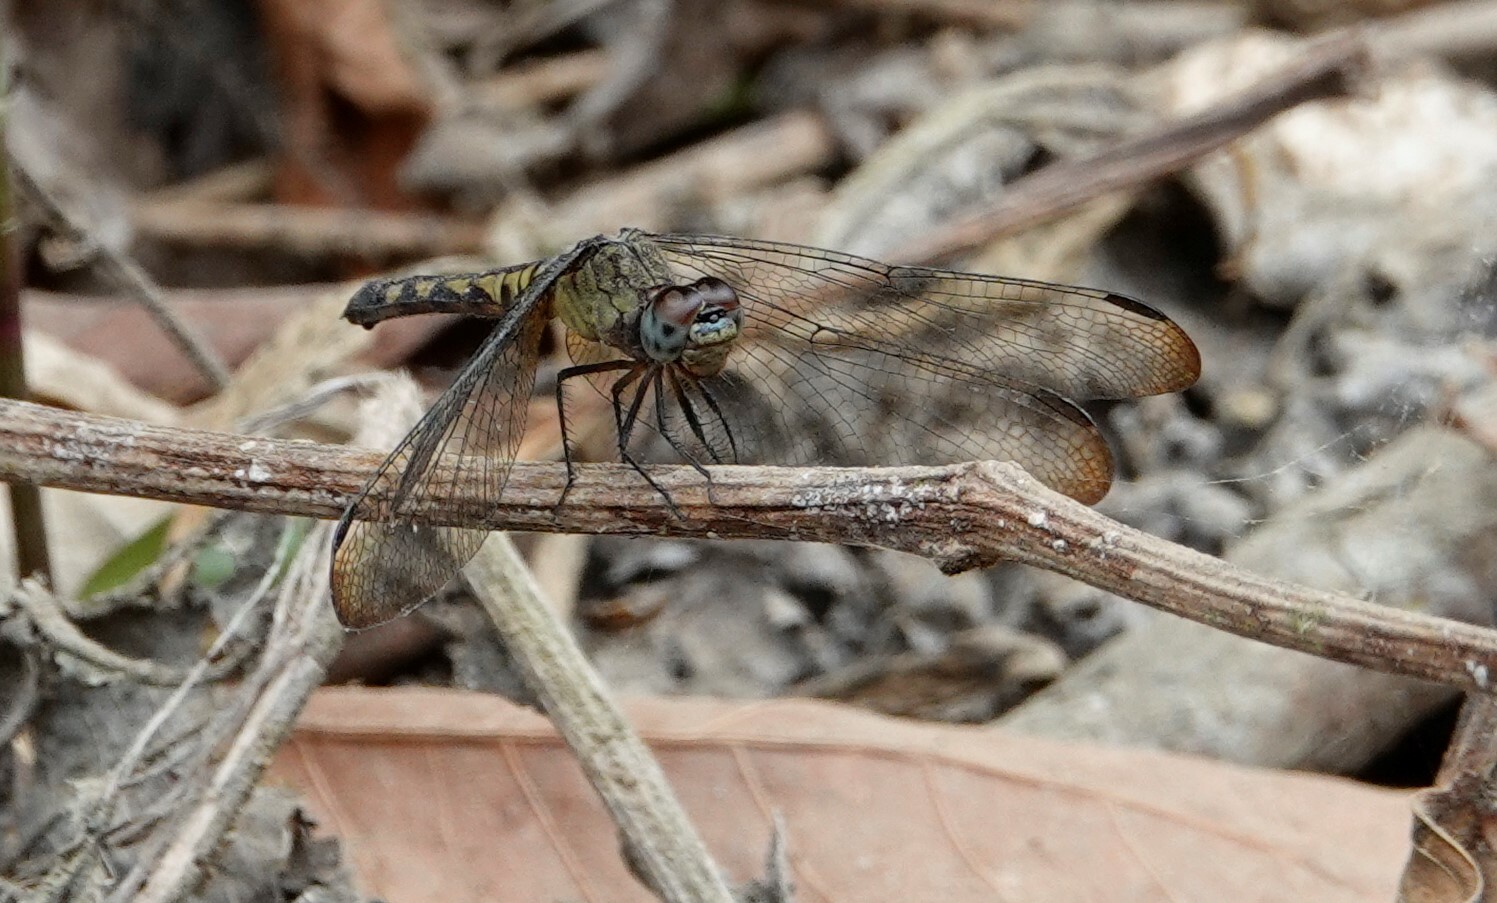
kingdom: Animalia
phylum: Arthropoda
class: Insecta
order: Odonata
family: Libellulidae
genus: Erythrodiplax
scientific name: Erythrodiplax kimminsi
